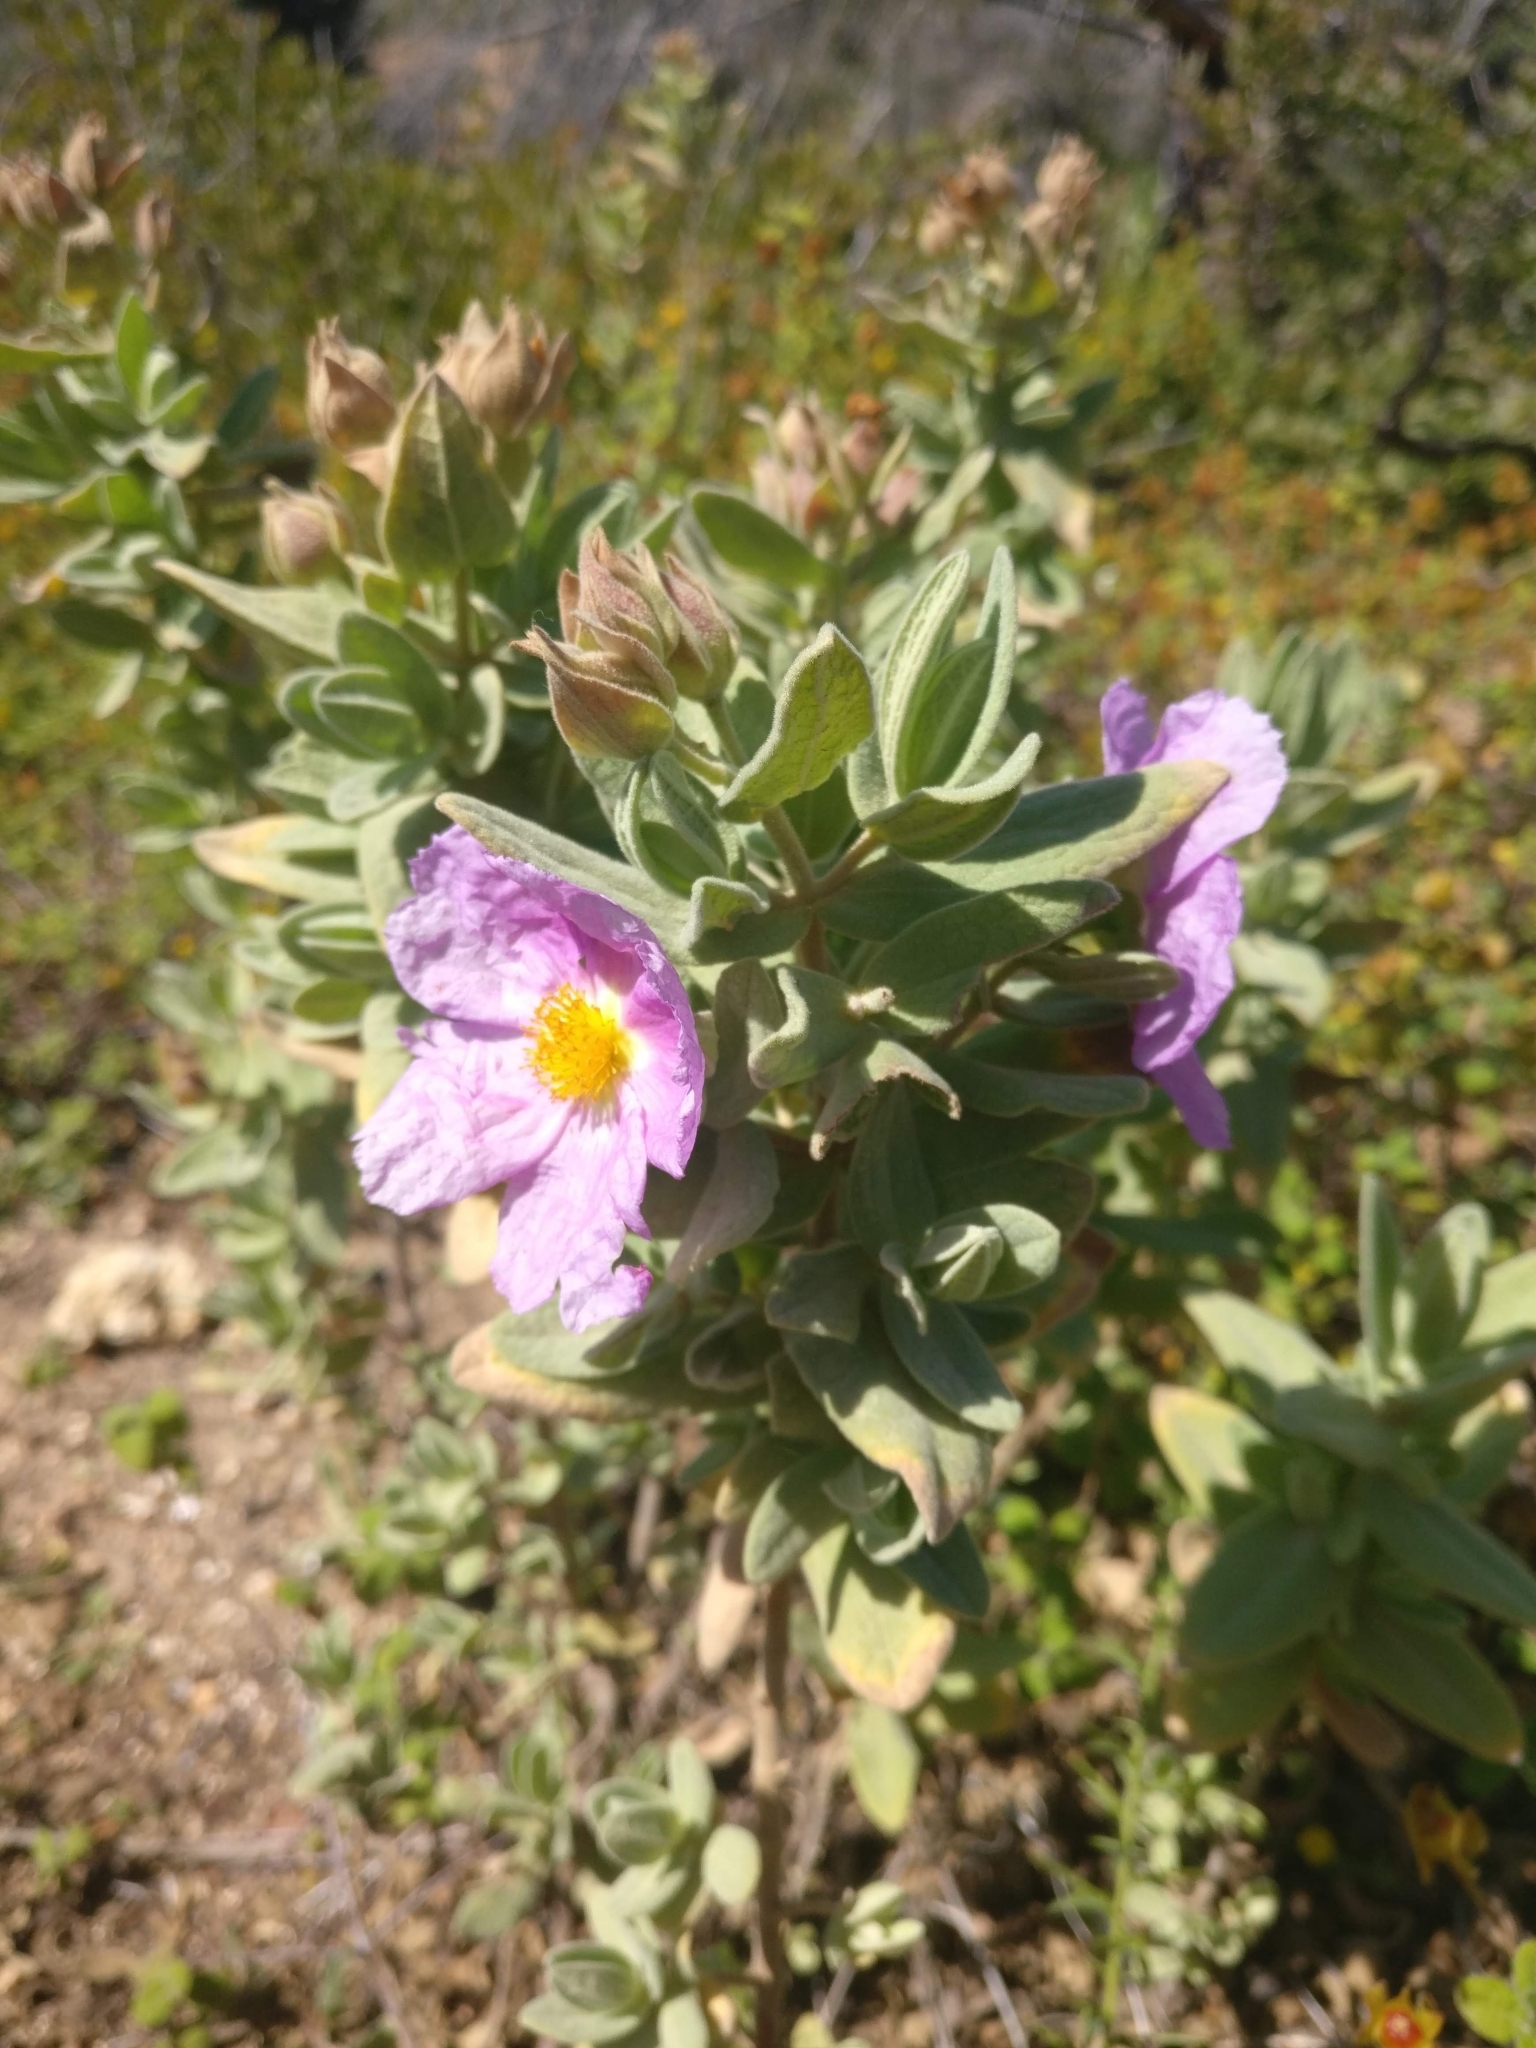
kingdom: Plantae
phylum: Tracheophyta
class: Magnoliopsida
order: Malvales
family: Cistaceae
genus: Cistus
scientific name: Cistus albidus
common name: White-leaf rock-rose
